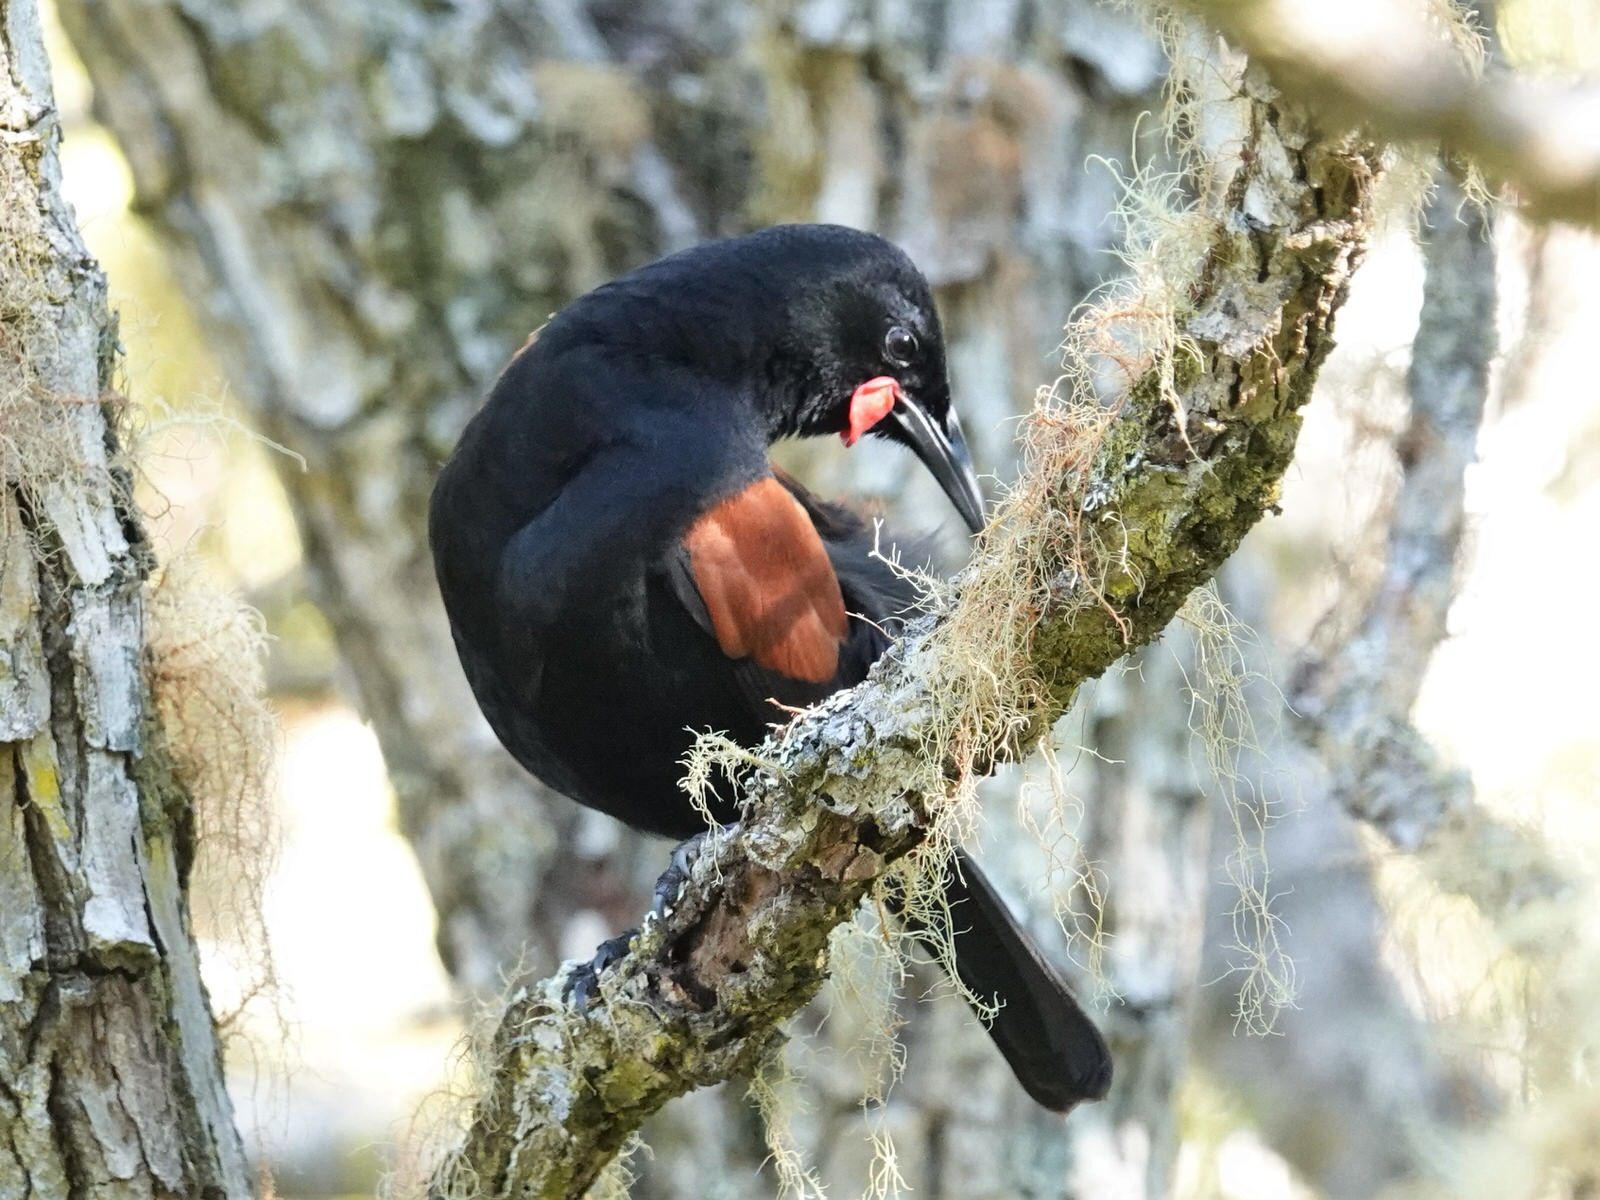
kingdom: Animalia
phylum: Chordata
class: Aves
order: Passeriformes
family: Callaeatidae
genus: Philesturnus
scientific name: Philesturnus carunculatus
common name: South island saddleback
